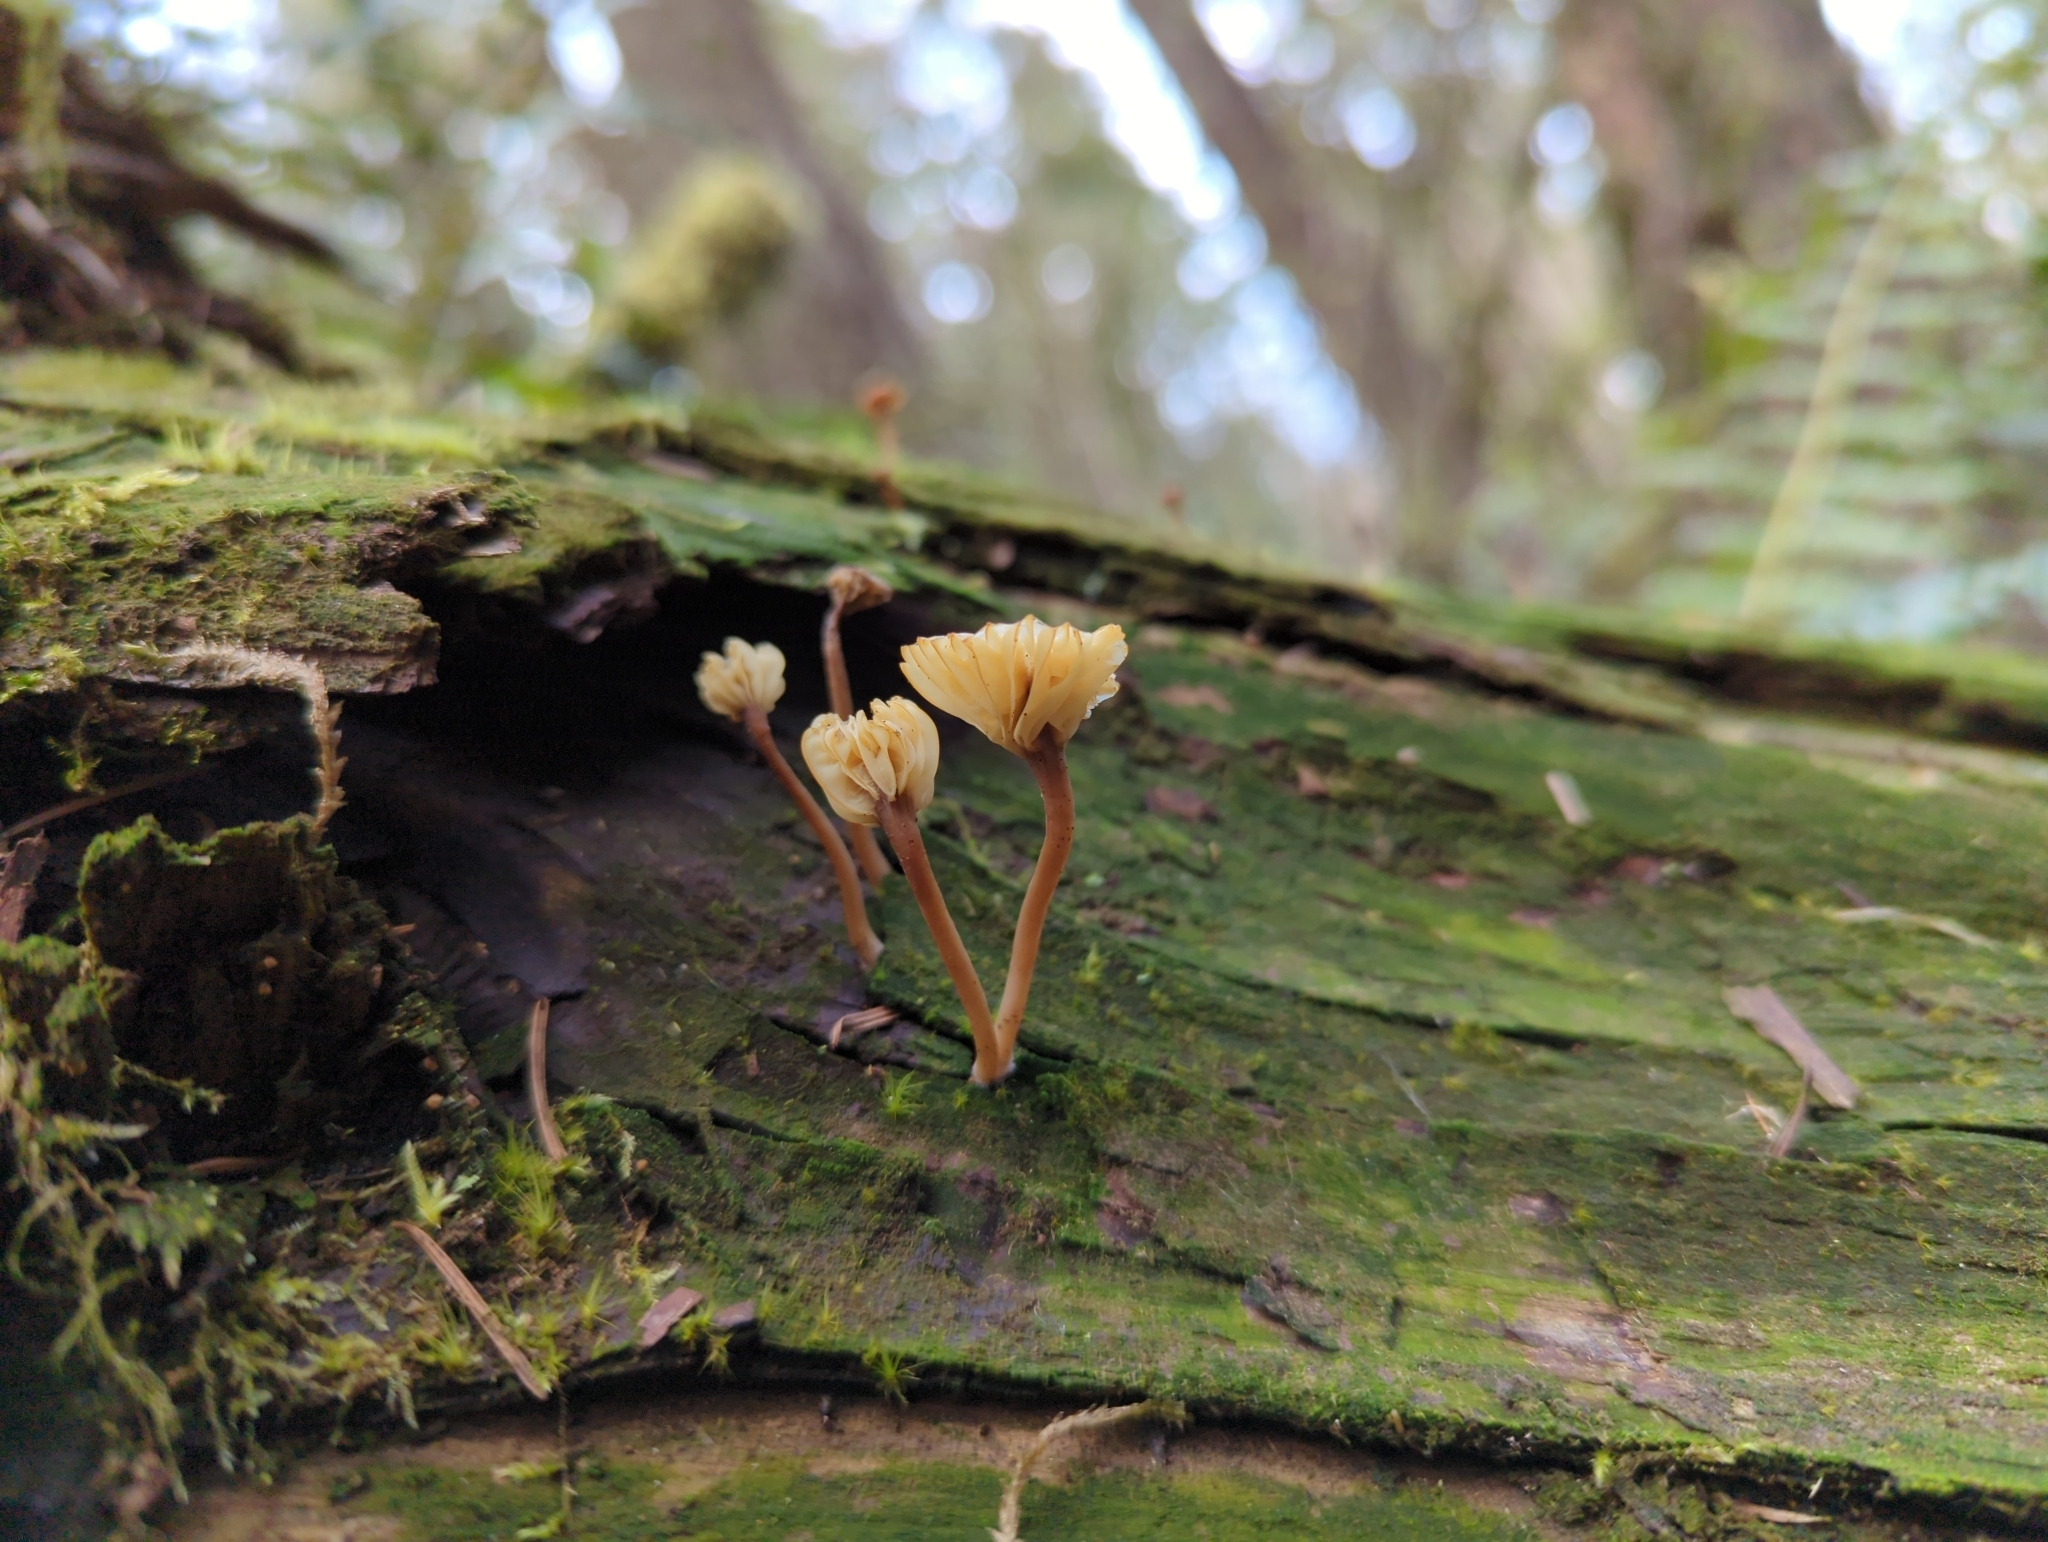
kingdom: Fungi
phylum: Basidiomycota
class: Agaricomycetes
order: Agaricales
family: Hygrophoraceae
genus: Lichenomphalia
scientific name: Lichenomphalia
